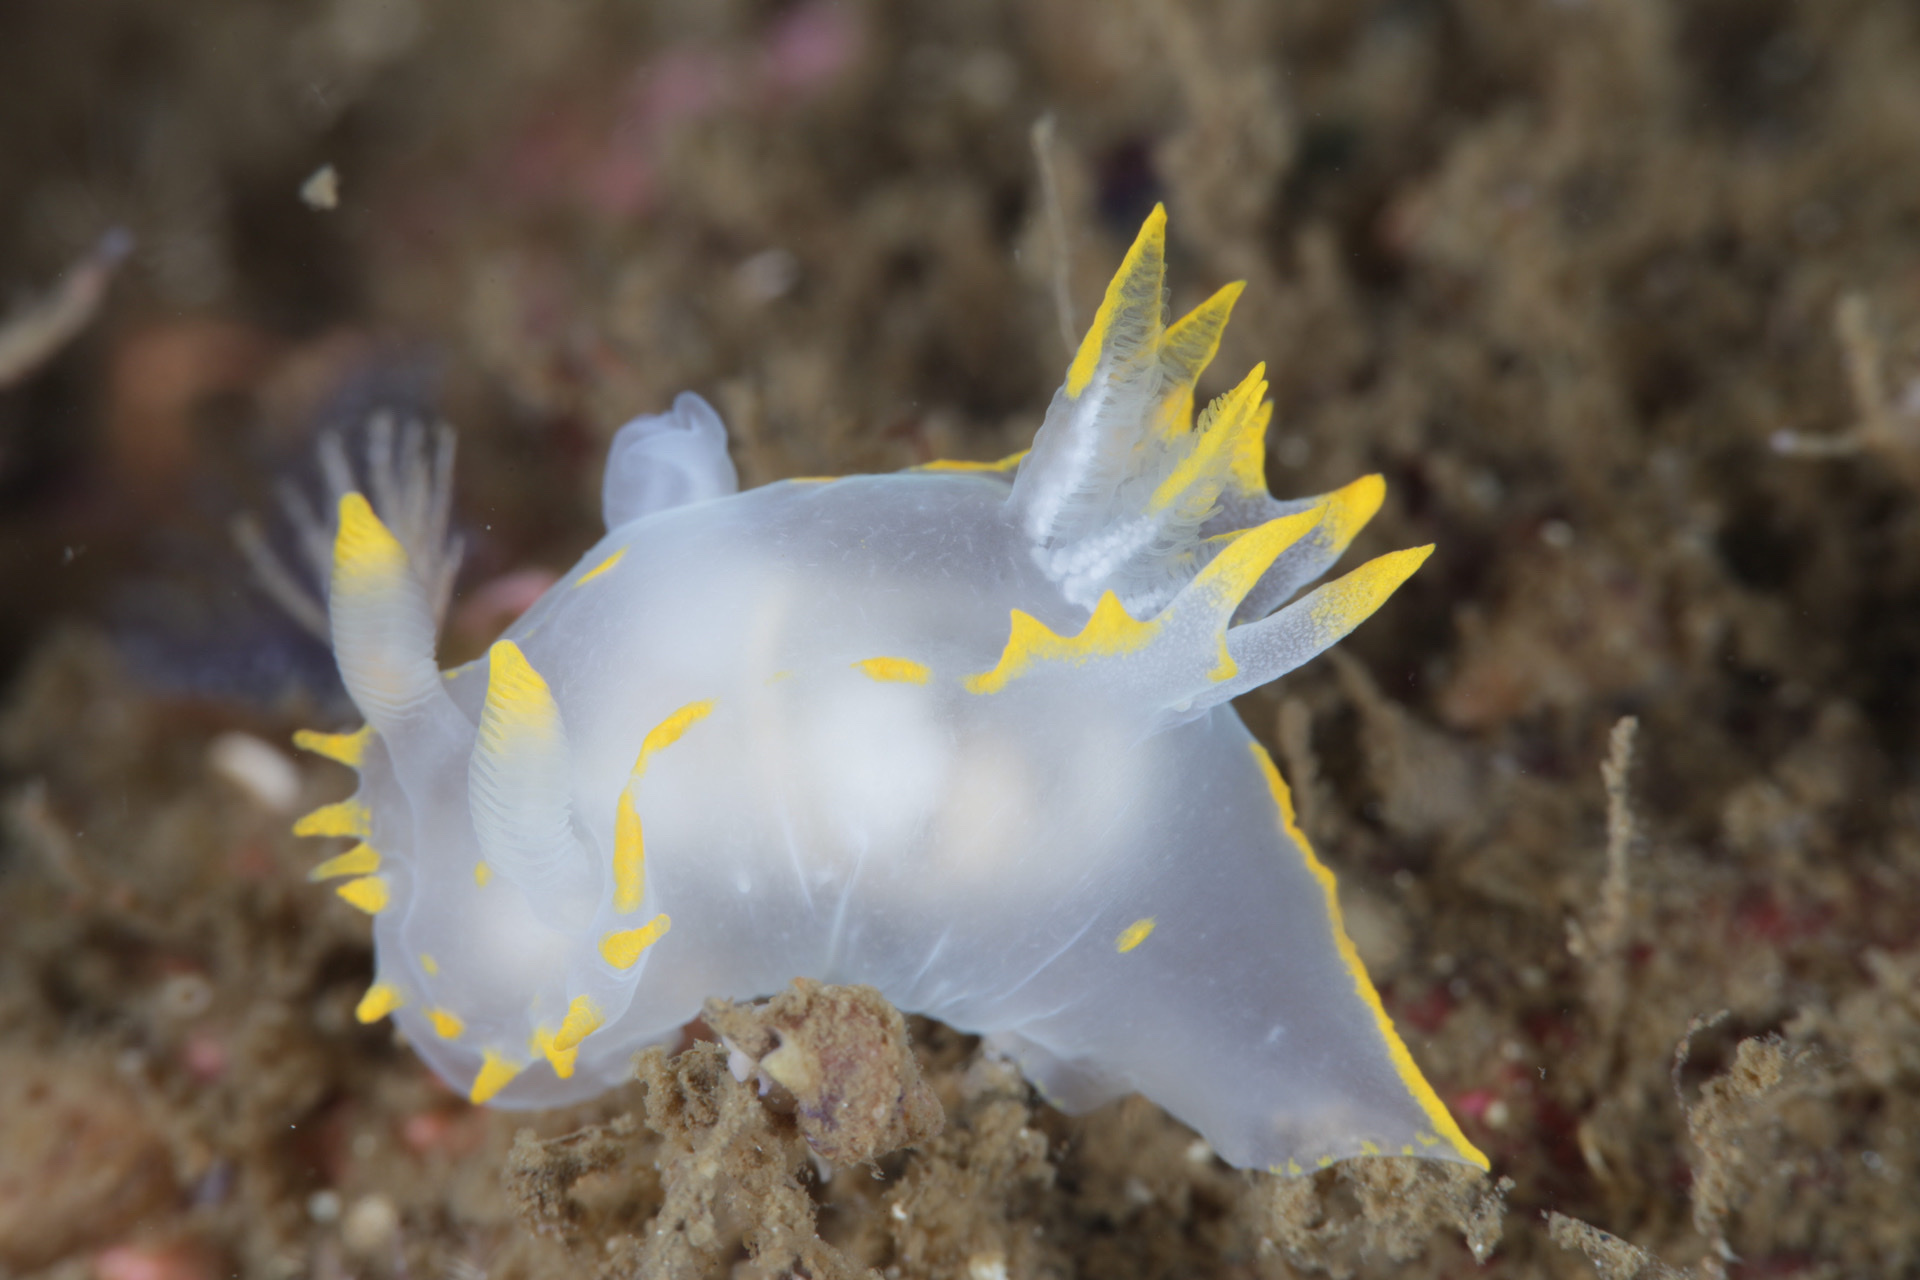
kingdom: Animalia
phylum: Mollusca
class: Gastropoda
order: Nudibranchia
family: Polyceridae
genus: Polycera
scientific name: Polycera faeroensis
